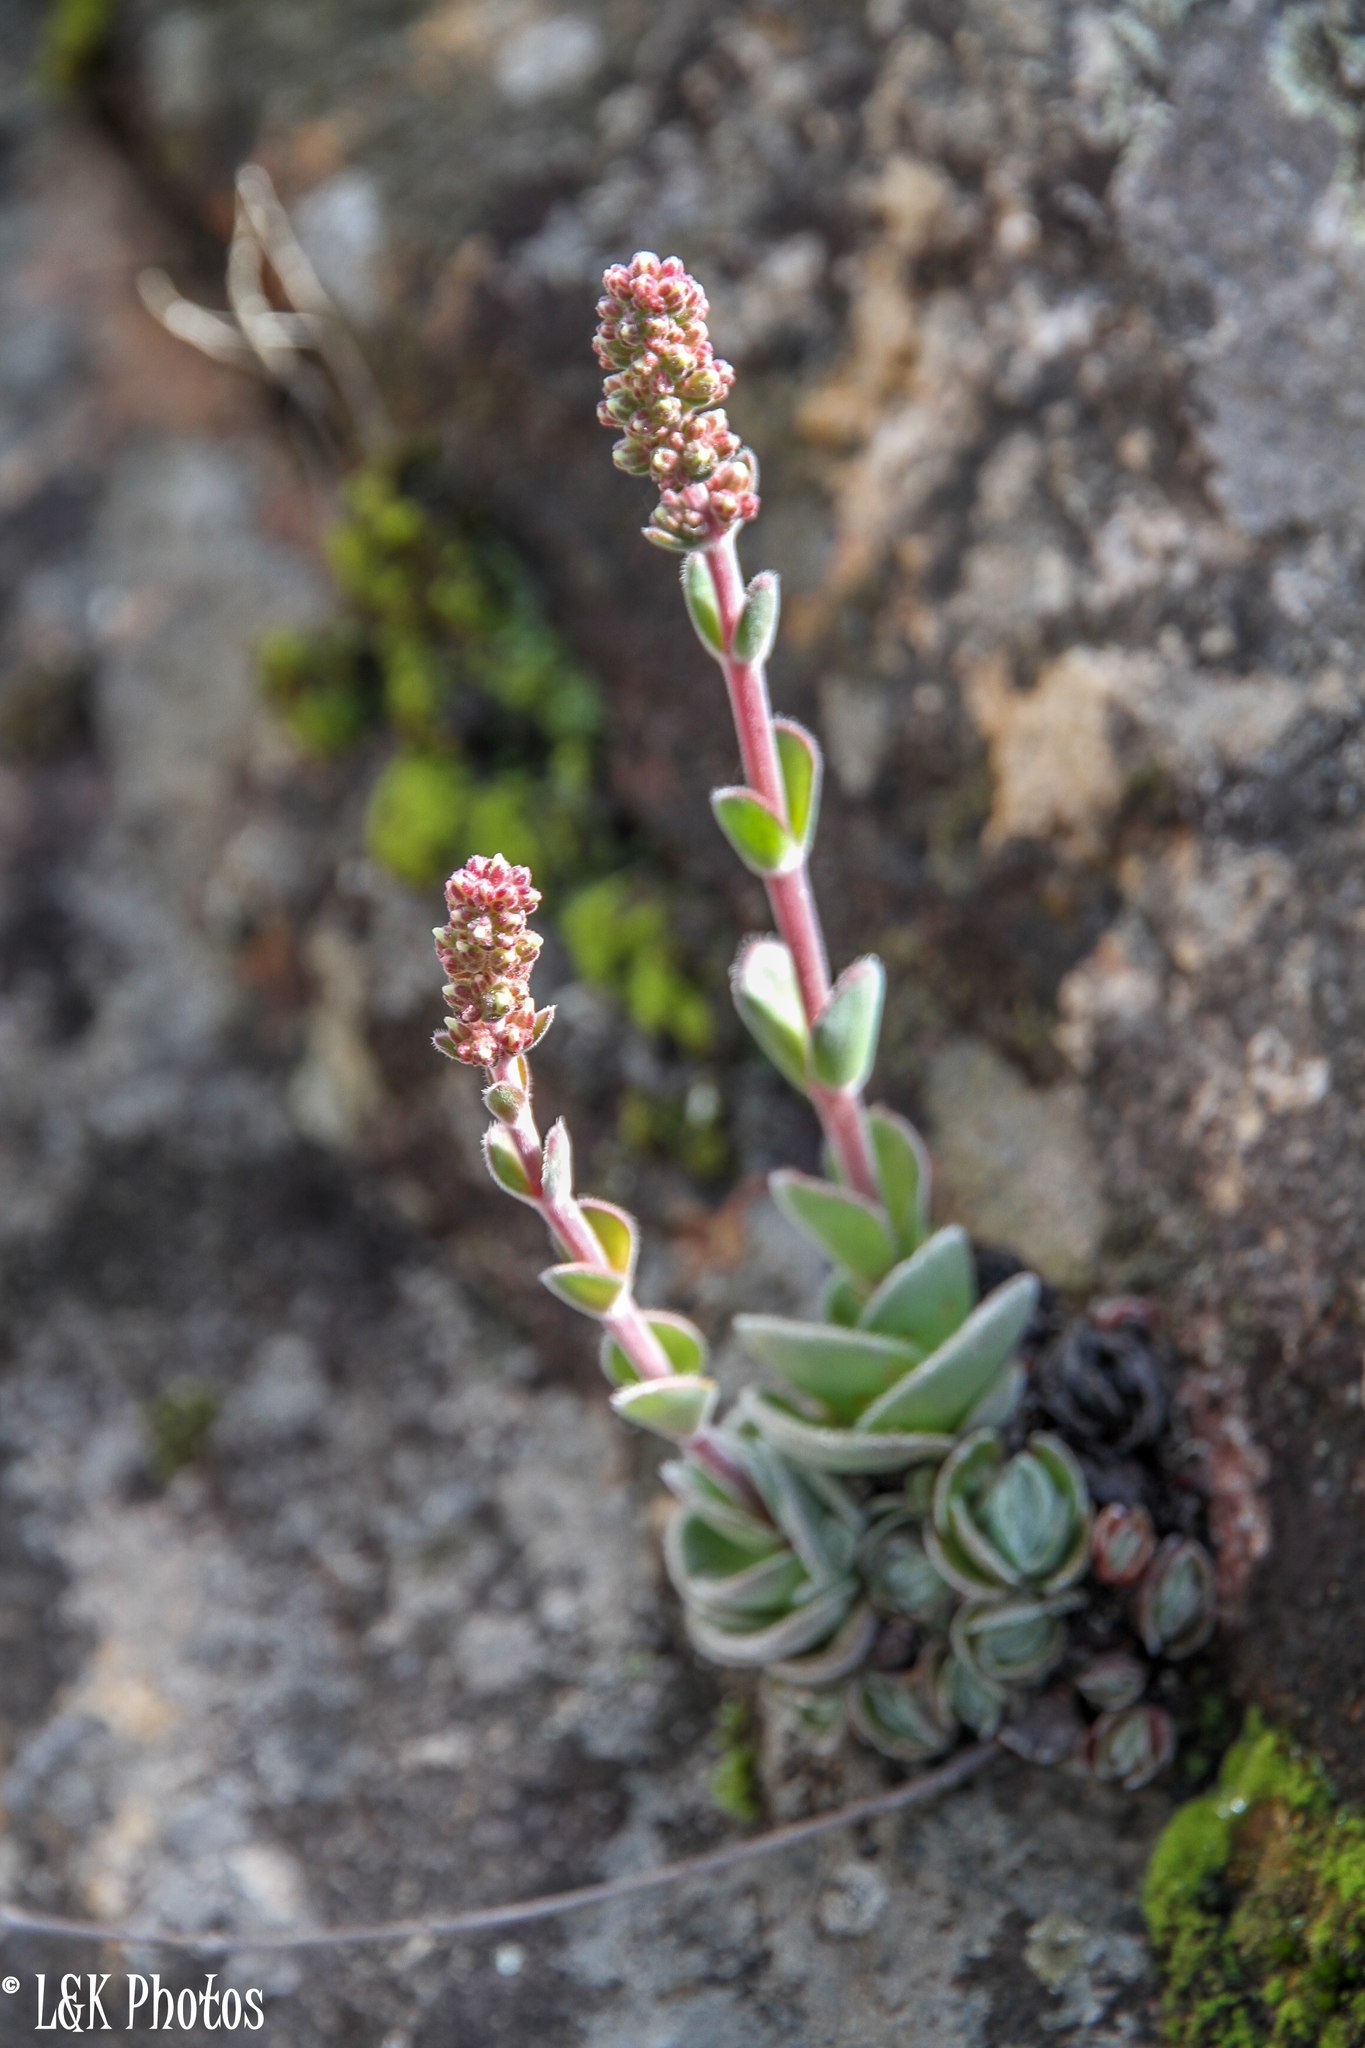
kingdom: Plantae
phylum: Tracheophyta
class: Magnoliopsida
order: Saxifragales
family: Crassulaceae
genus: Crassula
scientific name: Crassula tomentosa
